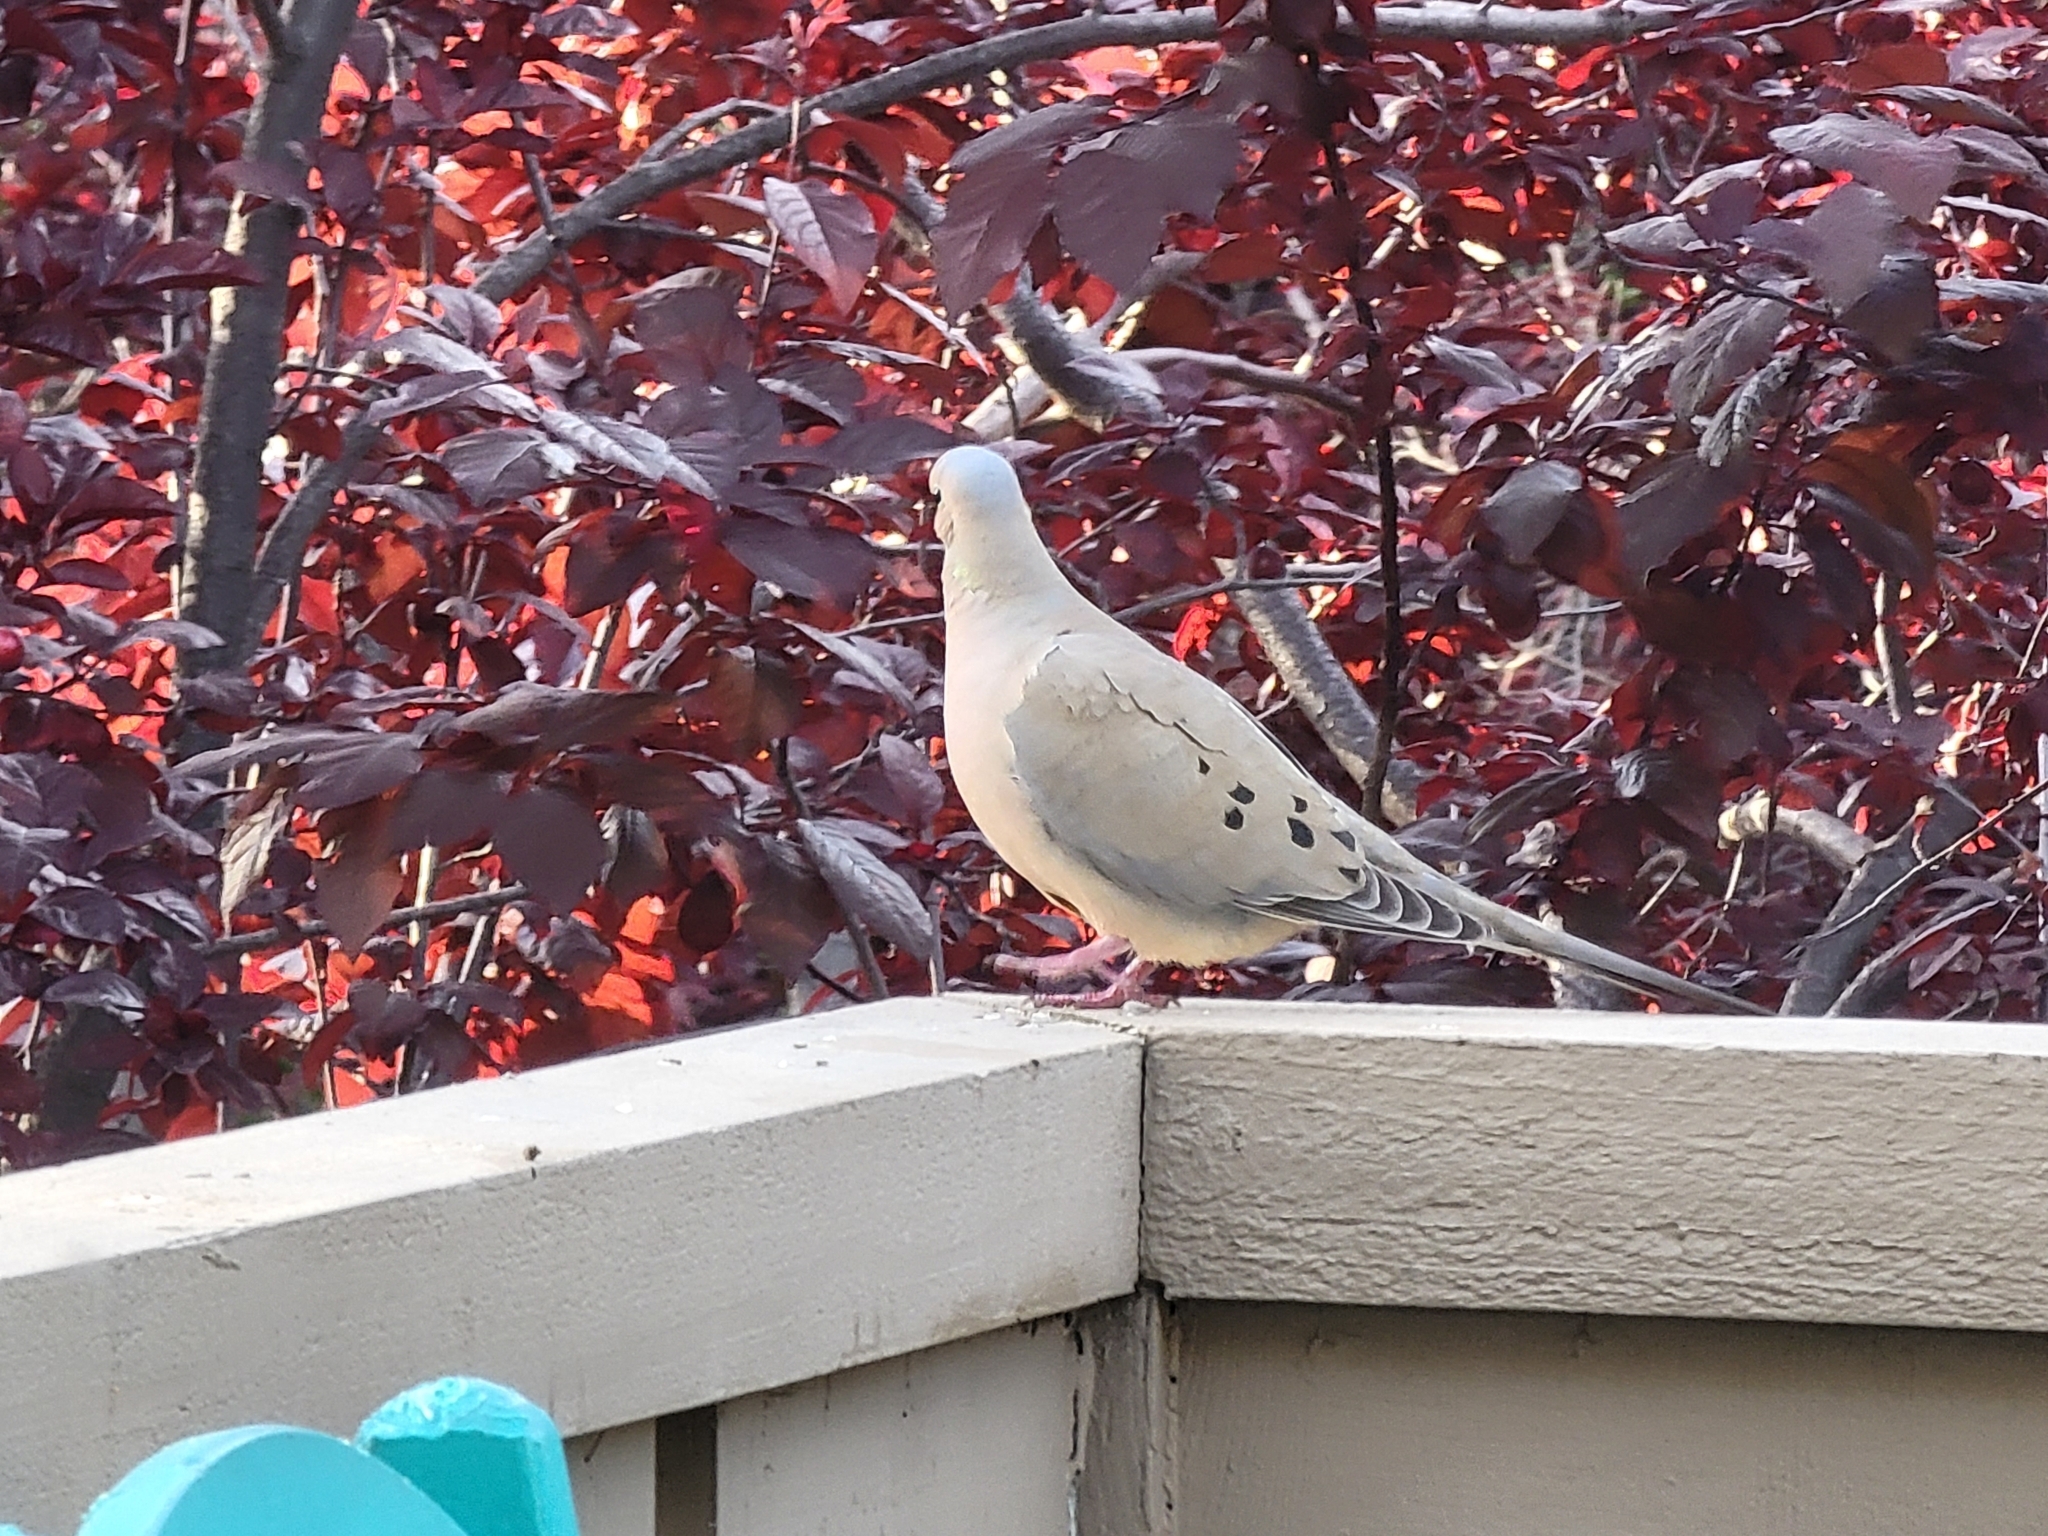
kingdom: Animalia
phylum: Chordata
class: Aves
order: Columbiformes
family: Columbidae
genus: Zenaida
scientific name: Zenaida macroura
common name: Mourning dove
